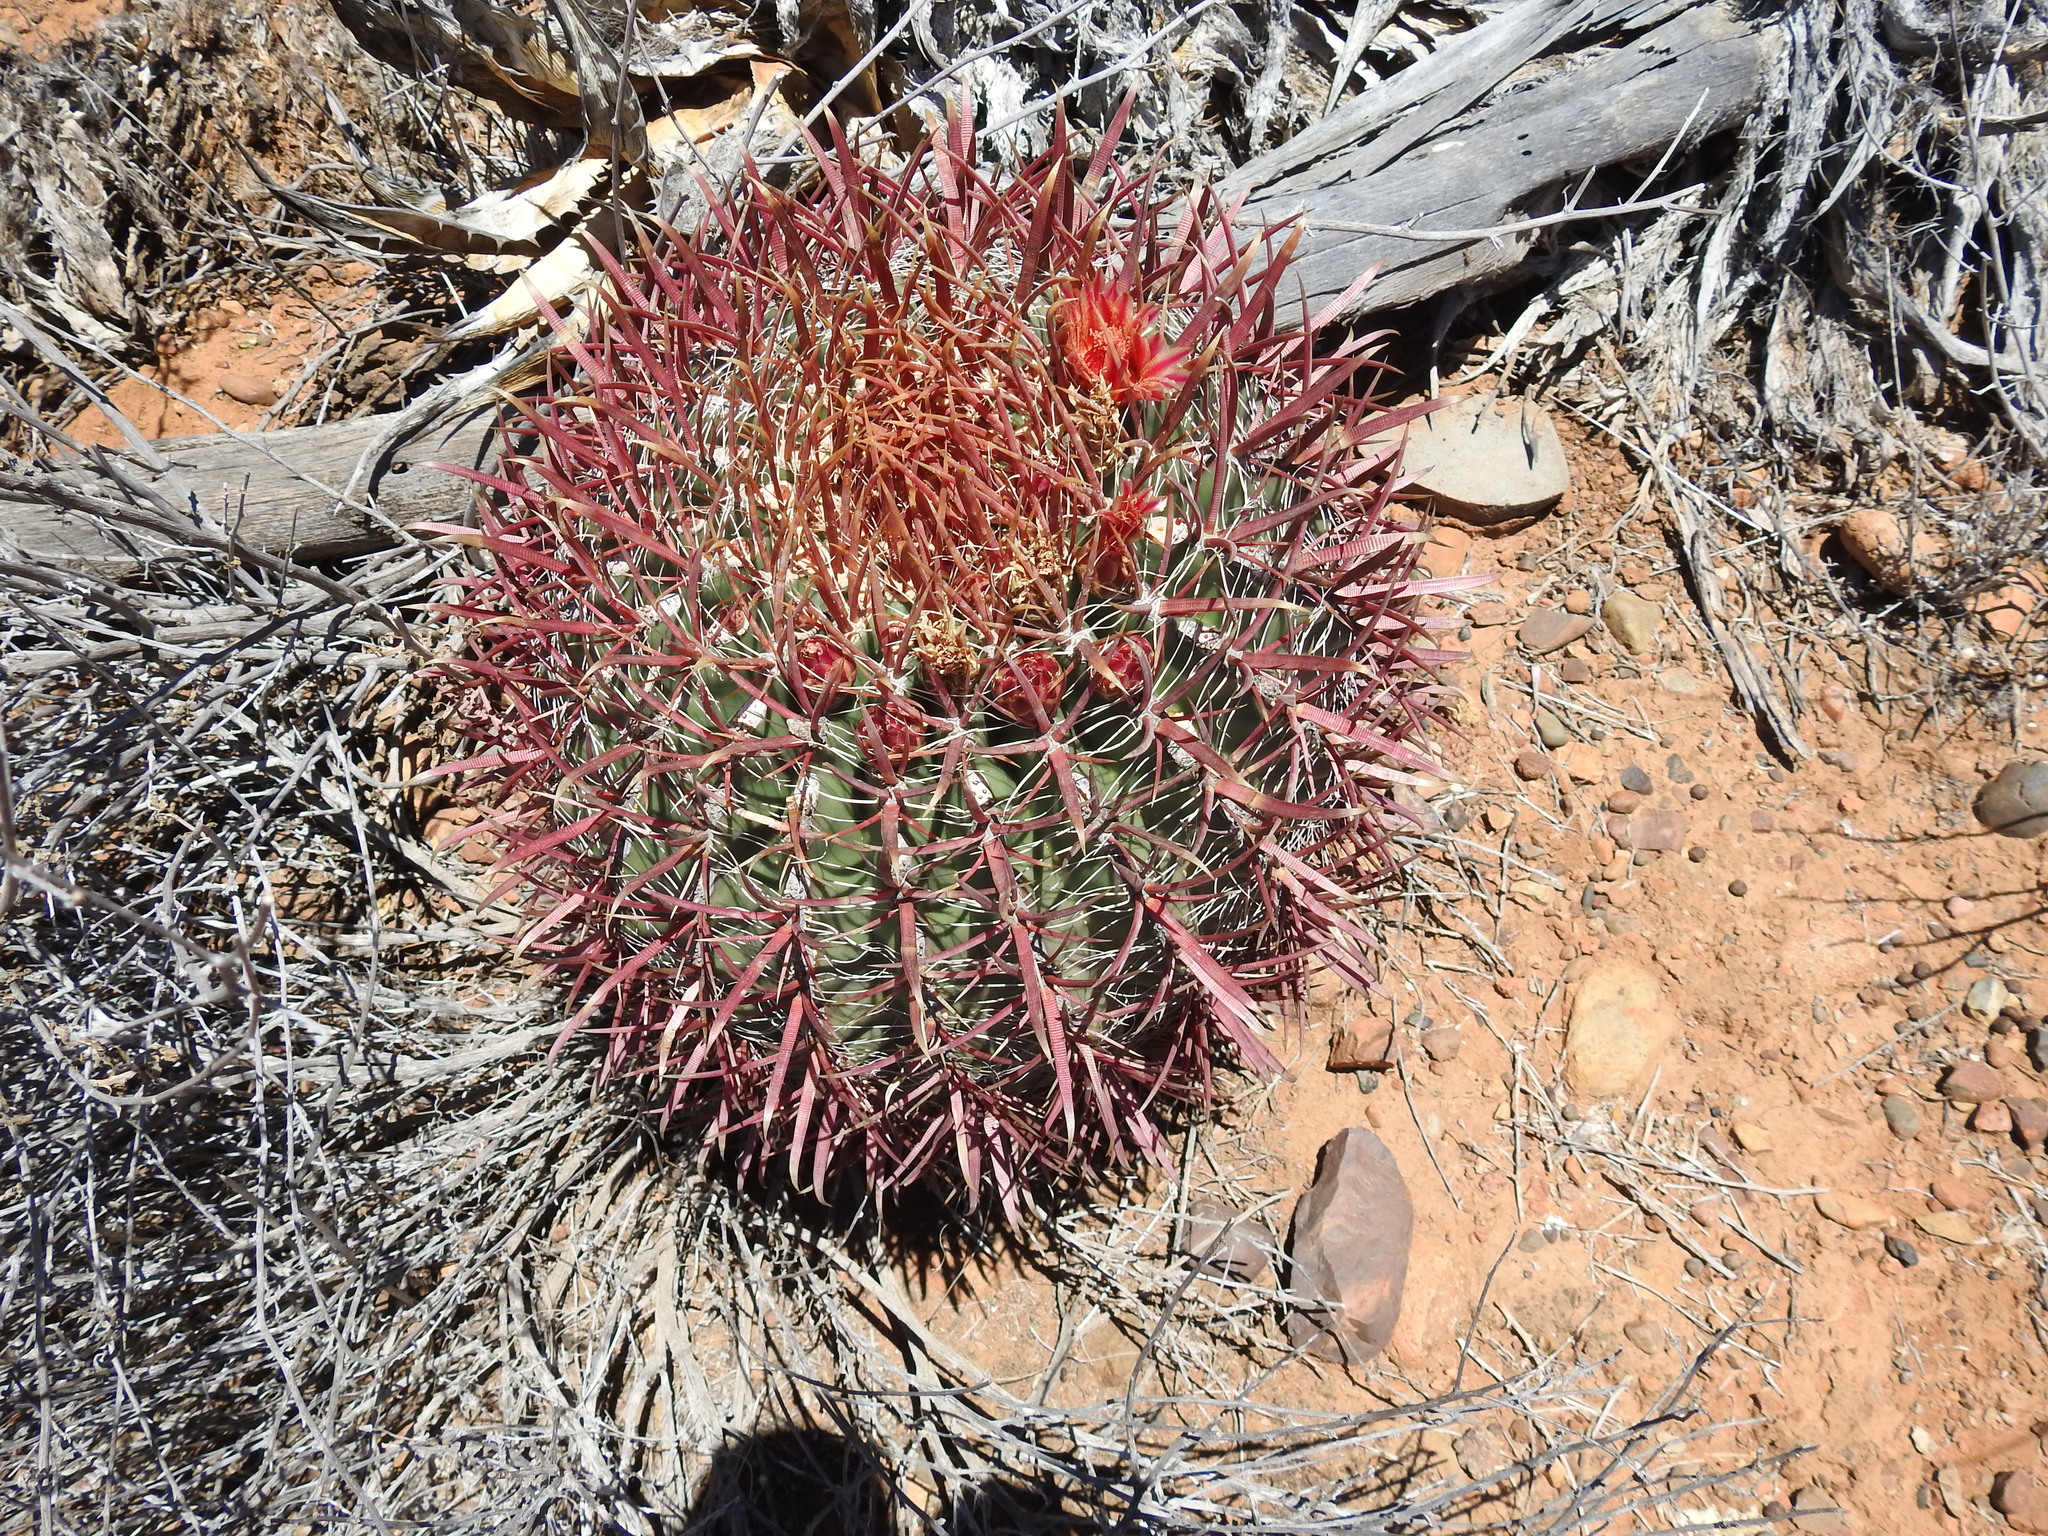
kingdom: Plantae
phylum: Tracheophyta
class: Magnoliopsida
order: Caryophyllales
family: Cactaceae
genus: Ferocactus
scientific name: Ferocactus gracilis
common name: Fire barrel cactus
